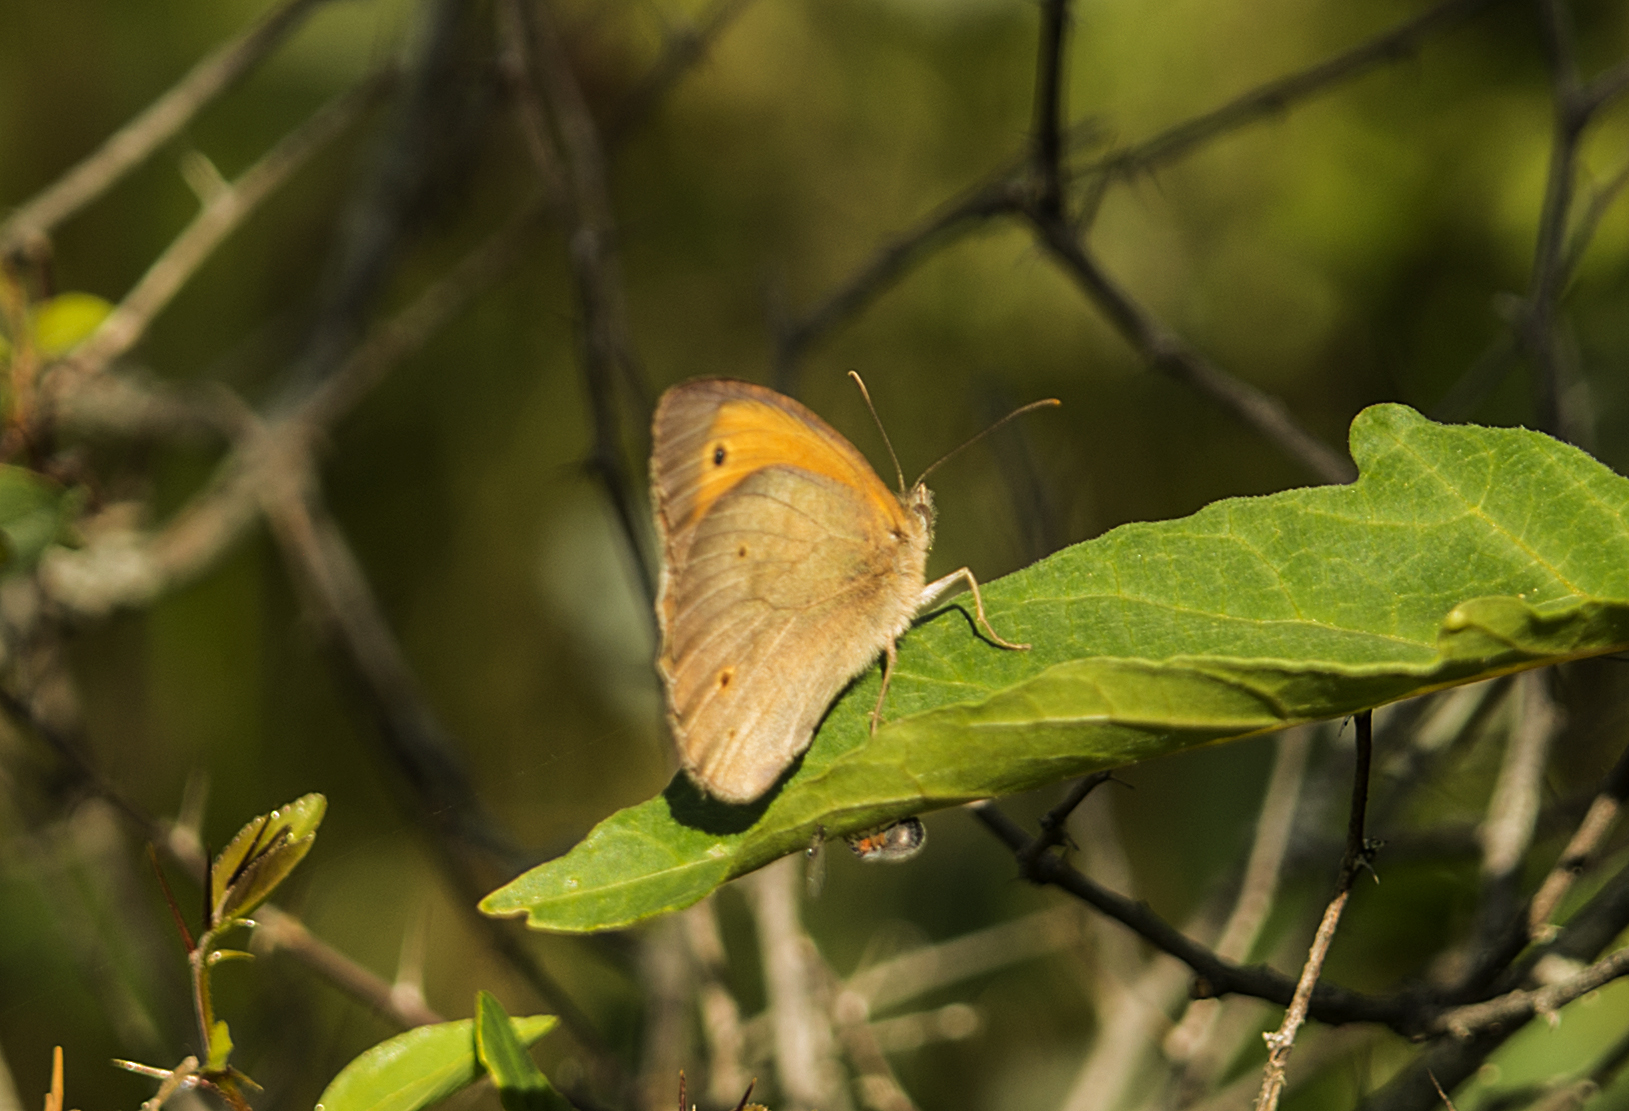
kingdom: Animalia
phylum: Arthropoda
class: Insecta
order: Lepidoptera
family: Nymphalidae
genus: Maniola
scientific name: Maniola jurtina
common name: Meadow brown
